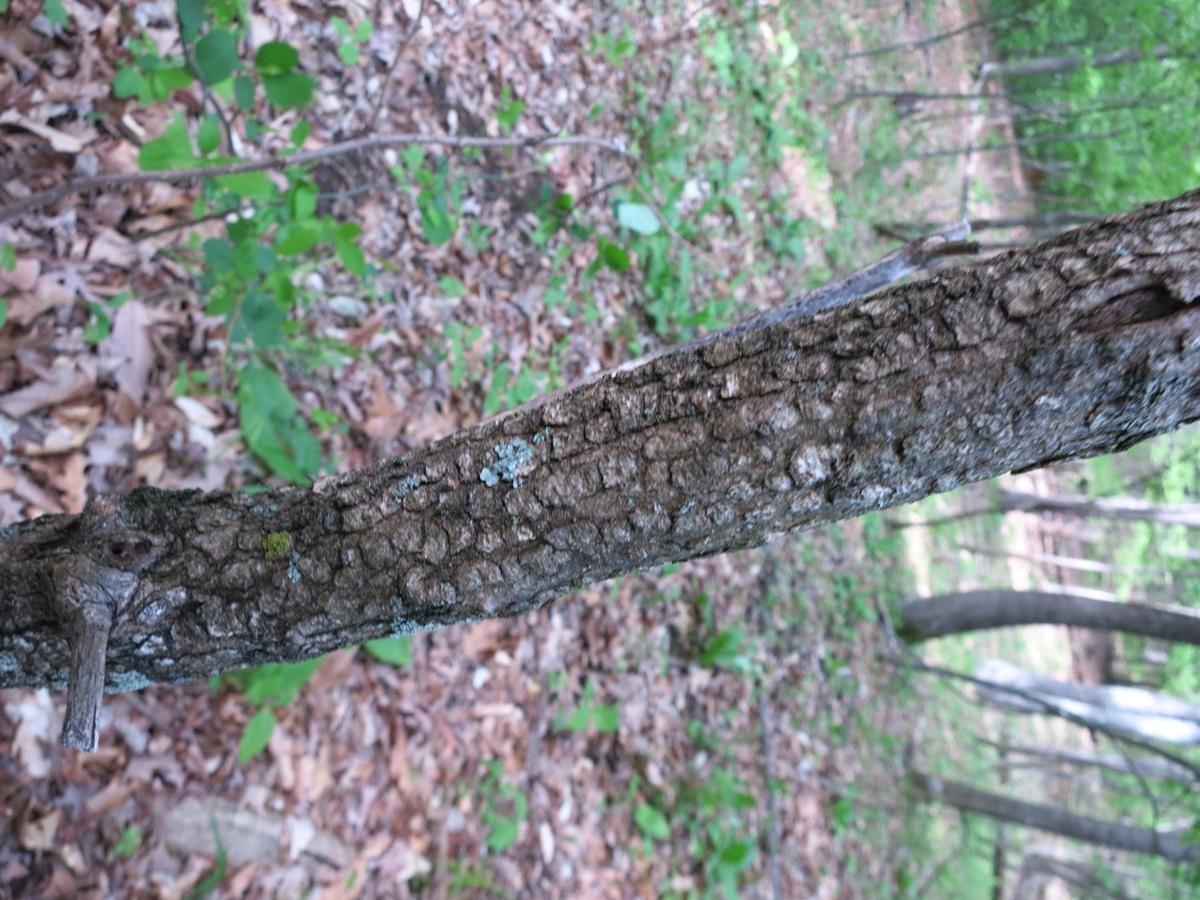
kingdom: Plantae
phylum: Tracheophyta
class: Magnoliopsida
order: Dipsacales
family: Viburnaceae
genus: Viburnum
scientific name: Viburnum prunifolium
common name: Black haw
